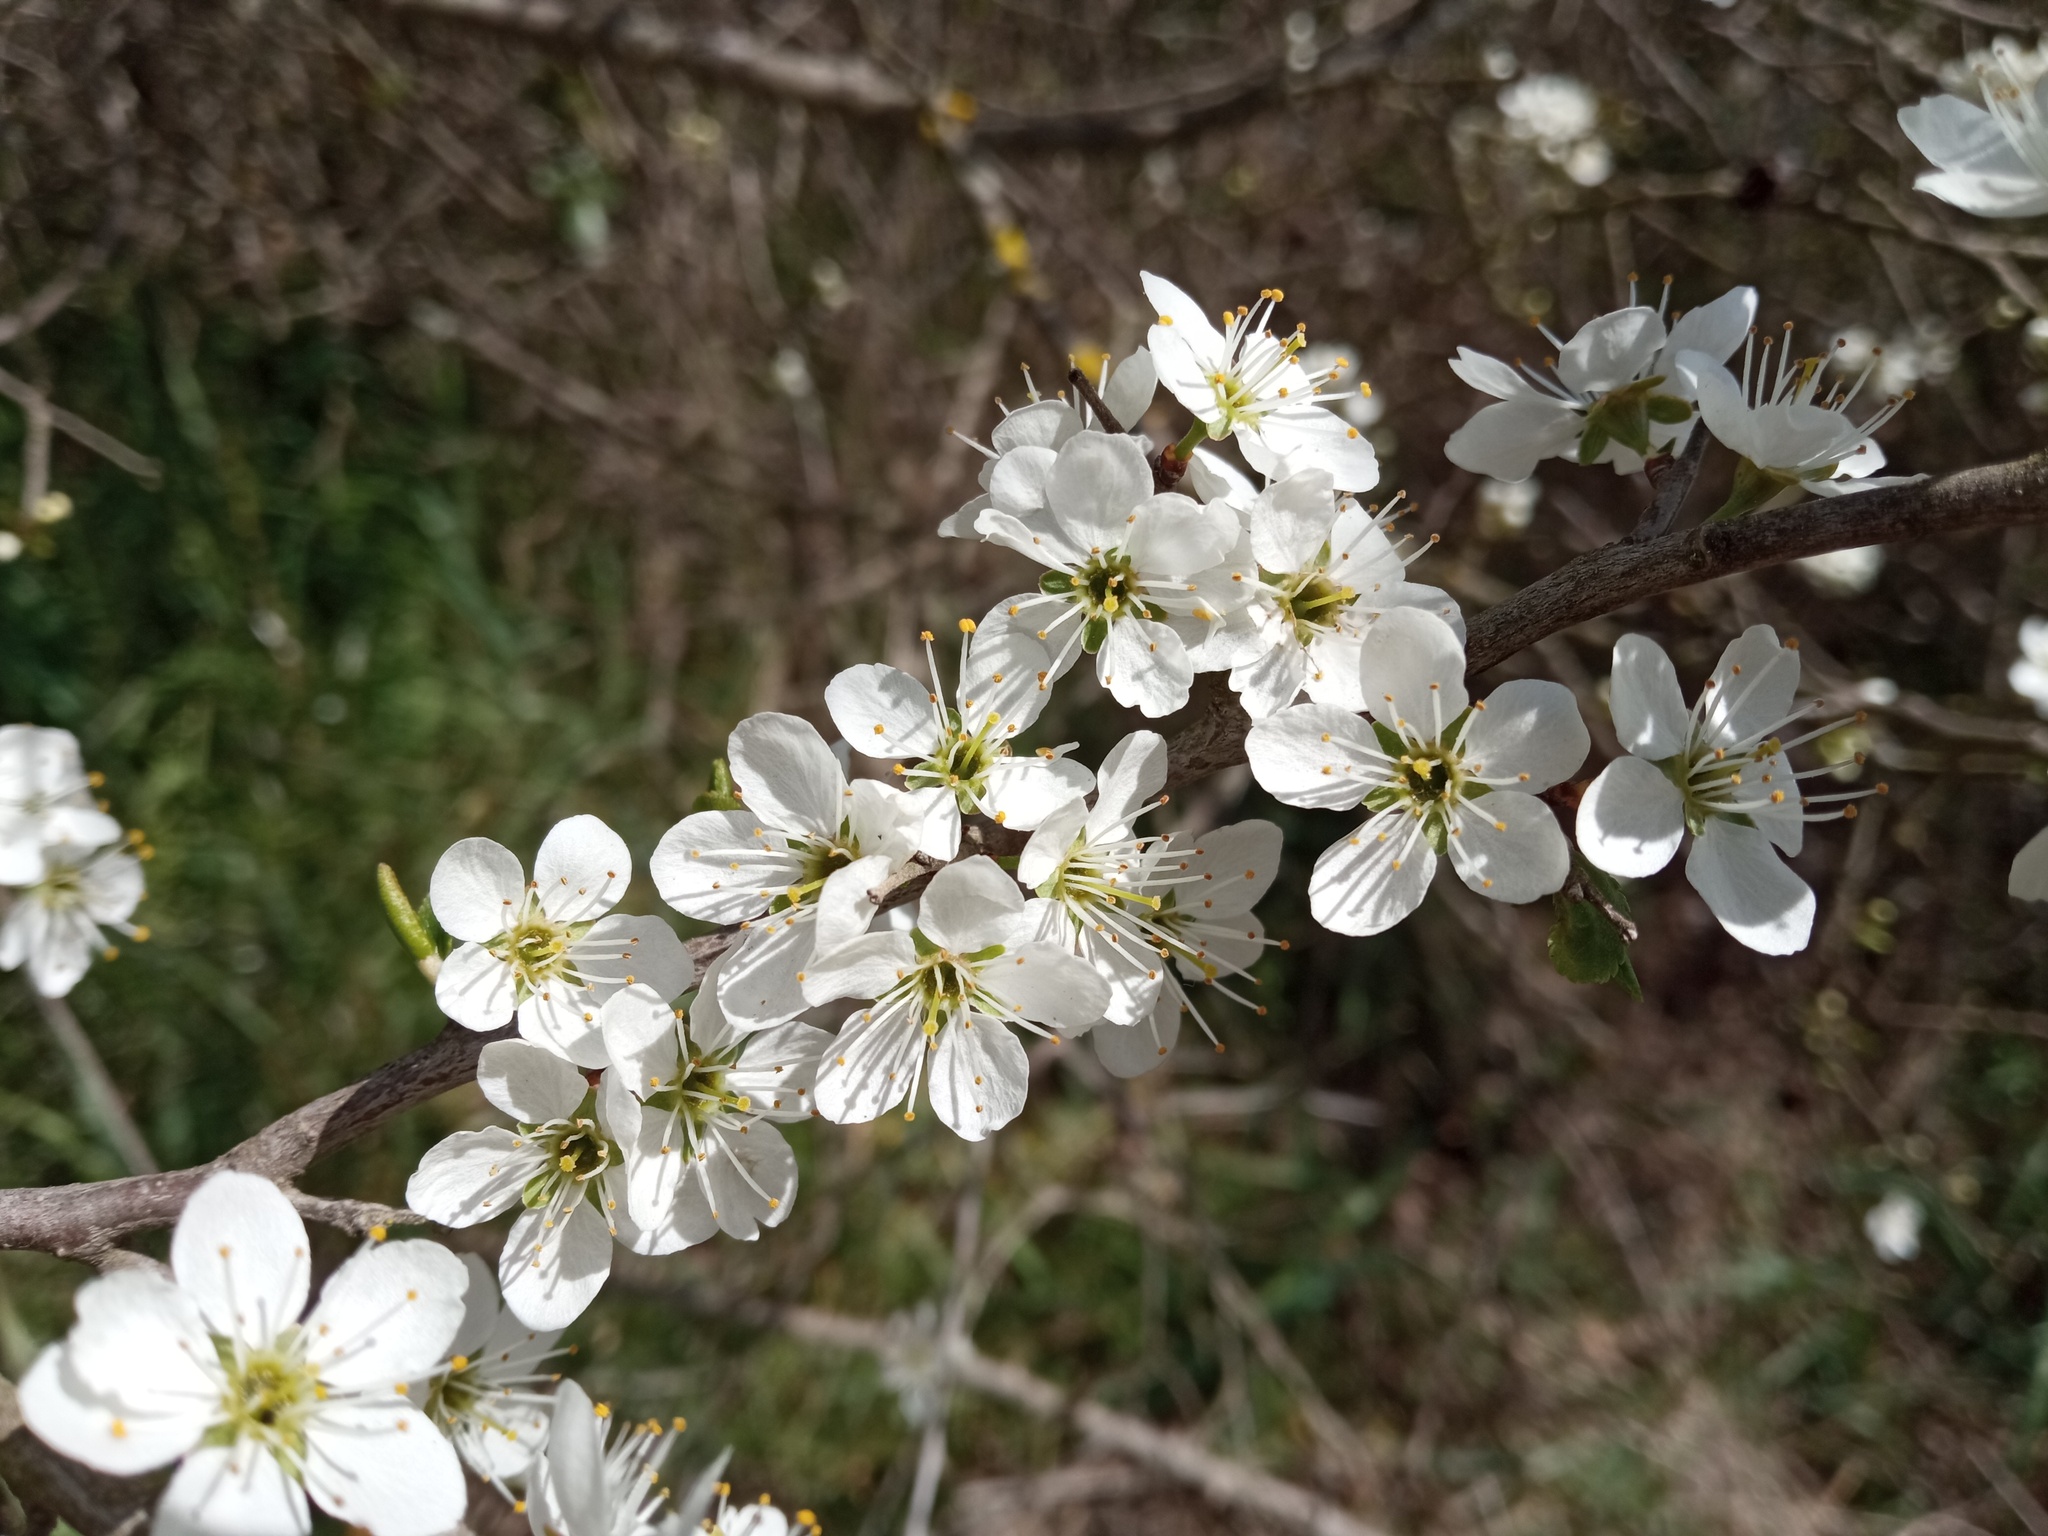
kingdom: Plantae
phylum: Tracheophyta
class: Magnoliopsida
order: Rosales
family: Rosaceae
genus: Prunus
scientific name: Prunus spinosa
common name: Blackthorn
